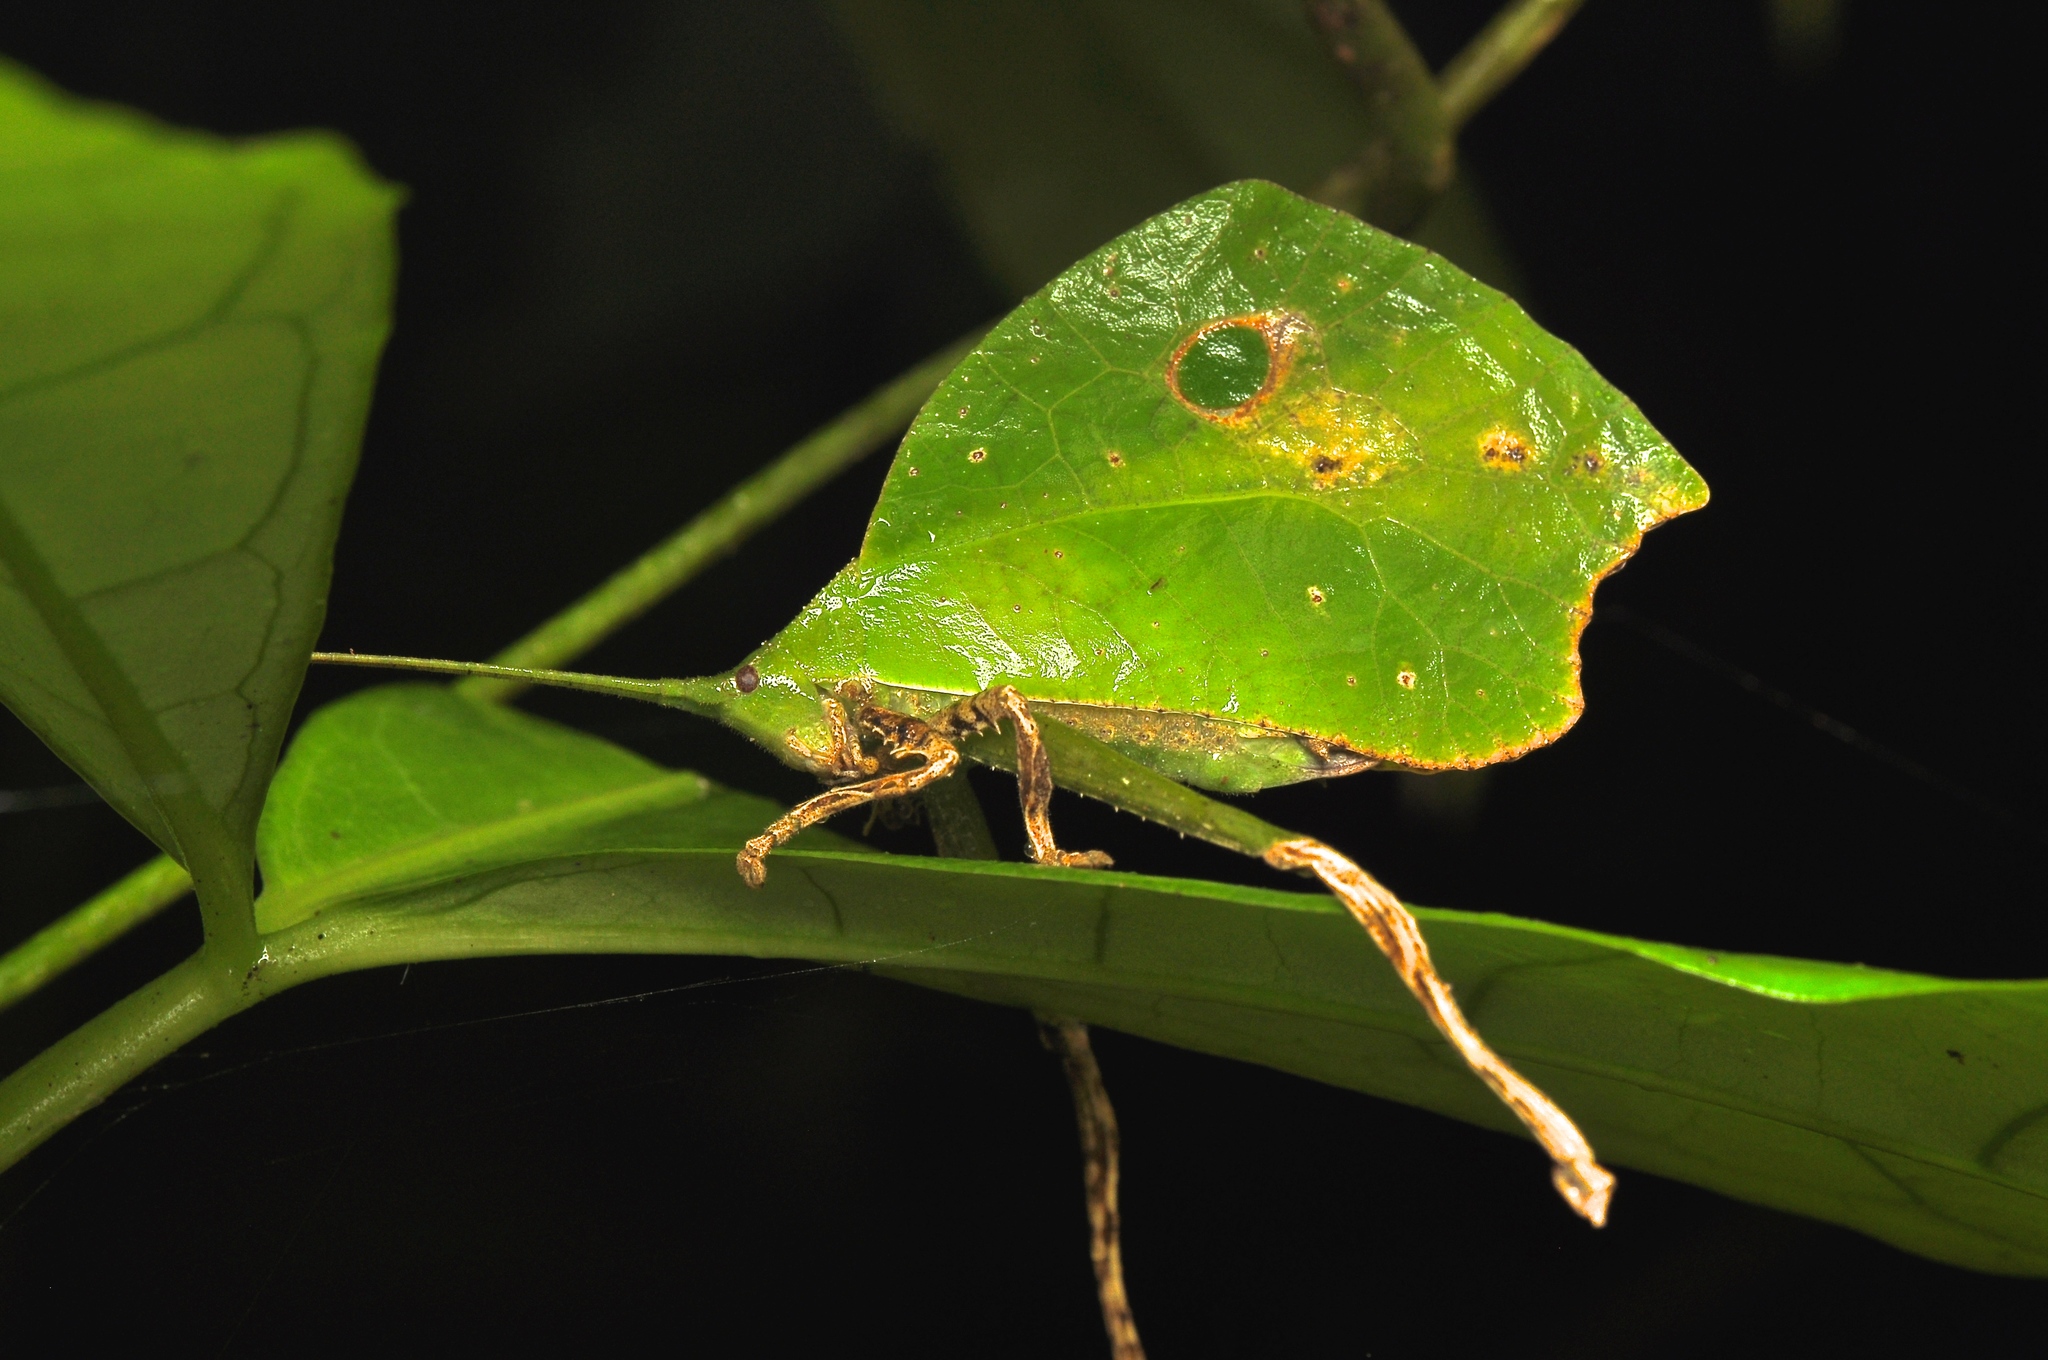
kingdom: Animalia
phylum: Arthropoda
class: Insecta
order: Orthoptera
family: Tettigoniidae
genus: Typophyllum
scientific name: Typophyllum mortuifolium
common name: Common little walking leaf
